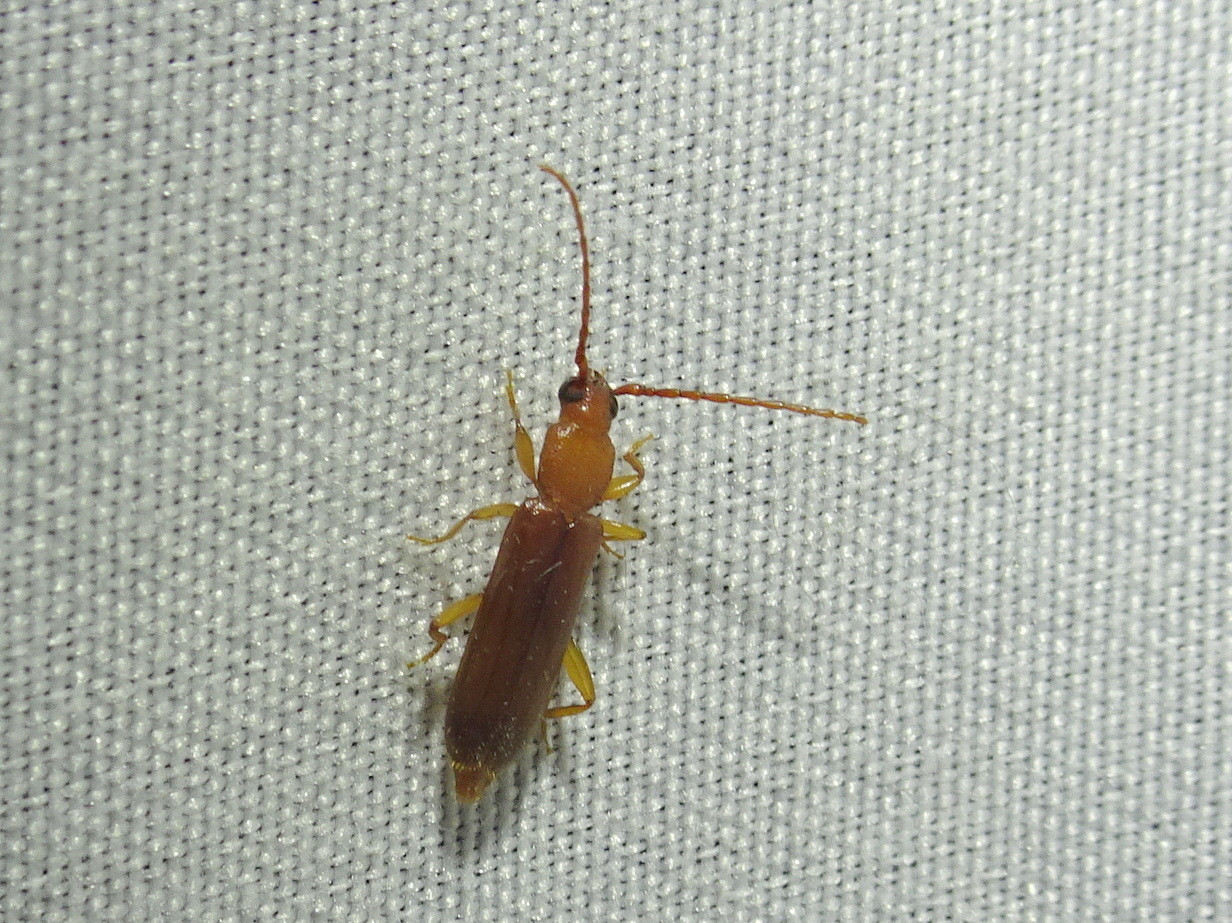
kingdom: Animalia
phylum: Arthropoda
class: Insecta
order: Coleoptera
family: Cerambycidae
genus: Smodicum
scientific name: Smodicum cucujiforme
